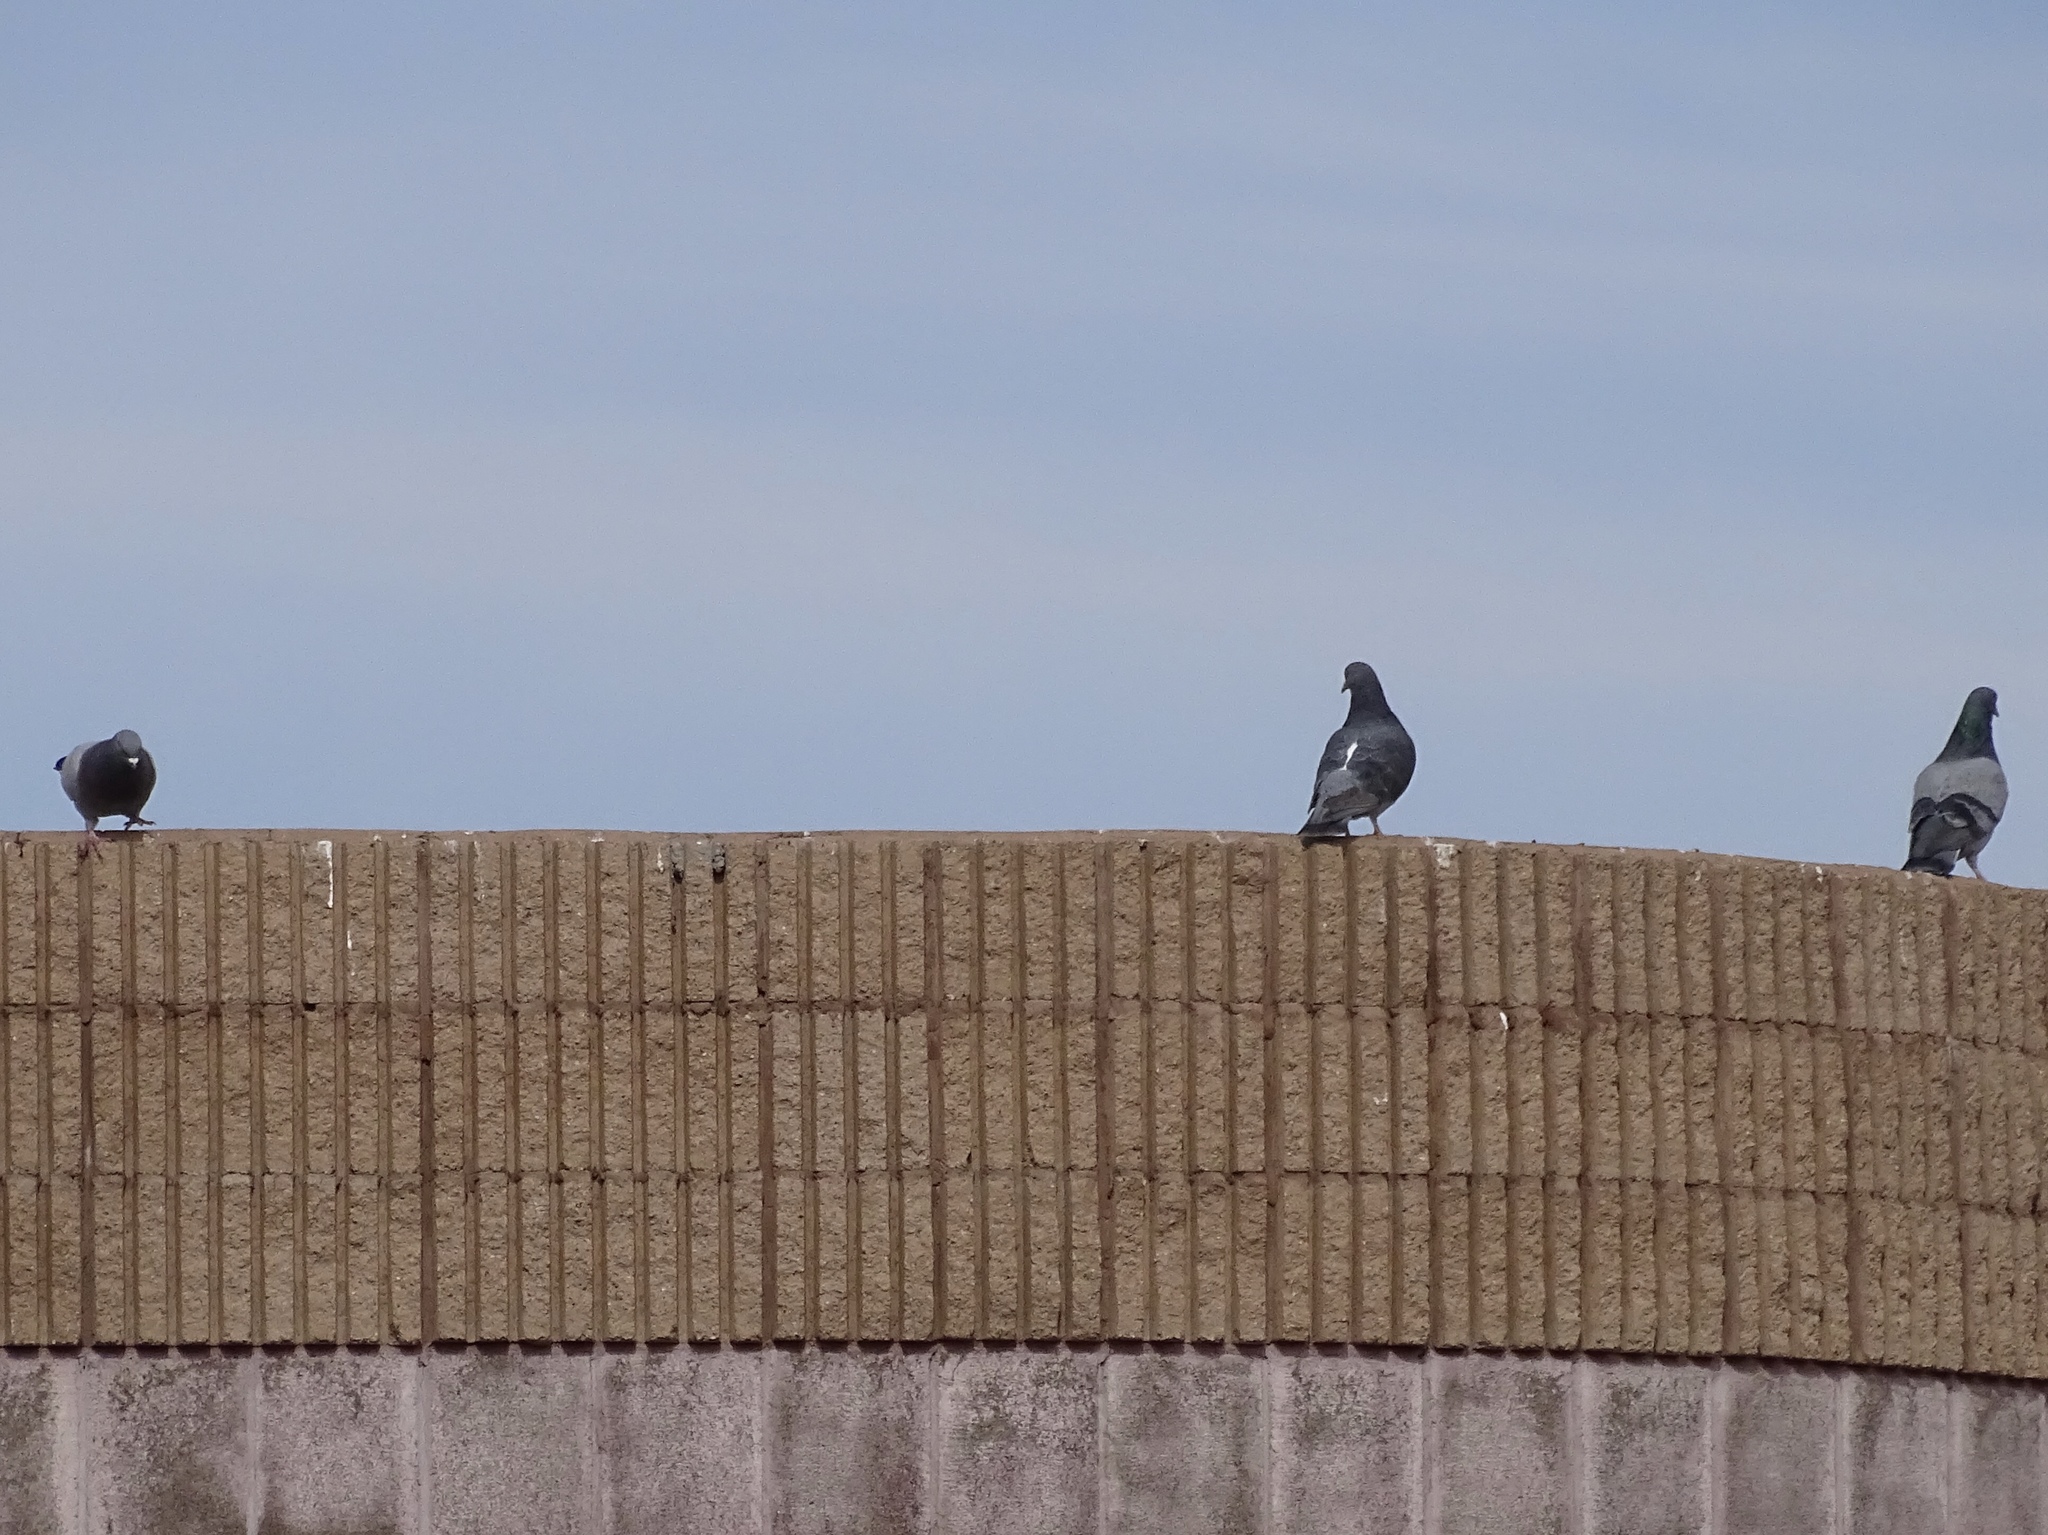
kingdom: Animalia
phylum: Chordata
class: Aves
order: Columbiformes
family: Columbidae
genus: Columba
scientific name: Columba livia
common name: Rock pigeon
